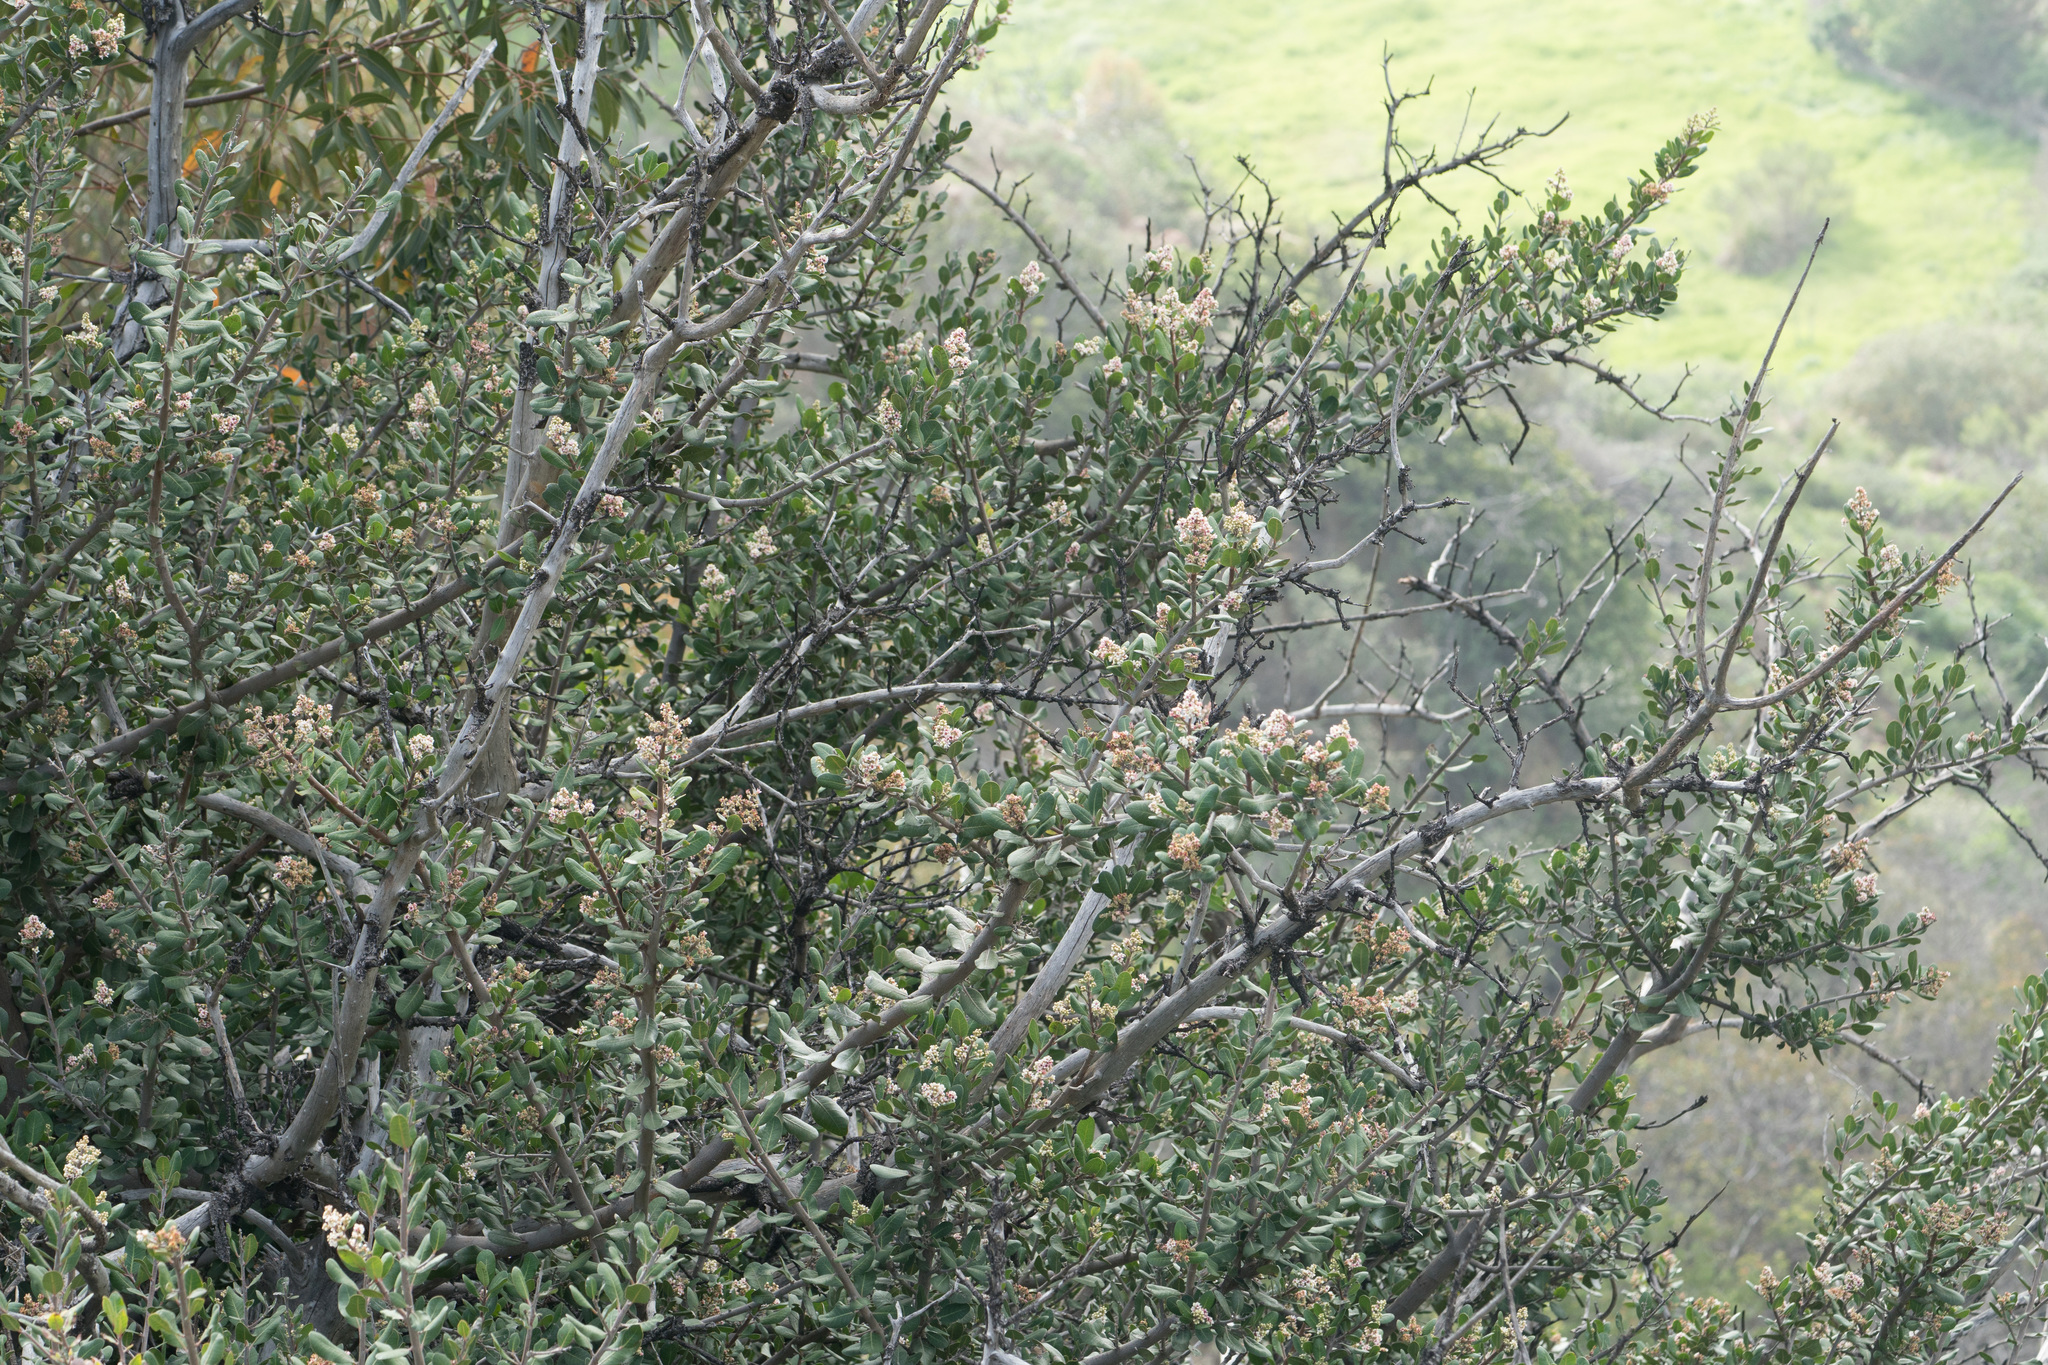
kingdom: Plantae
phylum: Tracheophyta
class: Magnoliopsida
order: Sapindales
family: Anacardiaceae
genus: Rhus
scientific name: Rhus integrifolia
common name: Lemonade sumac
